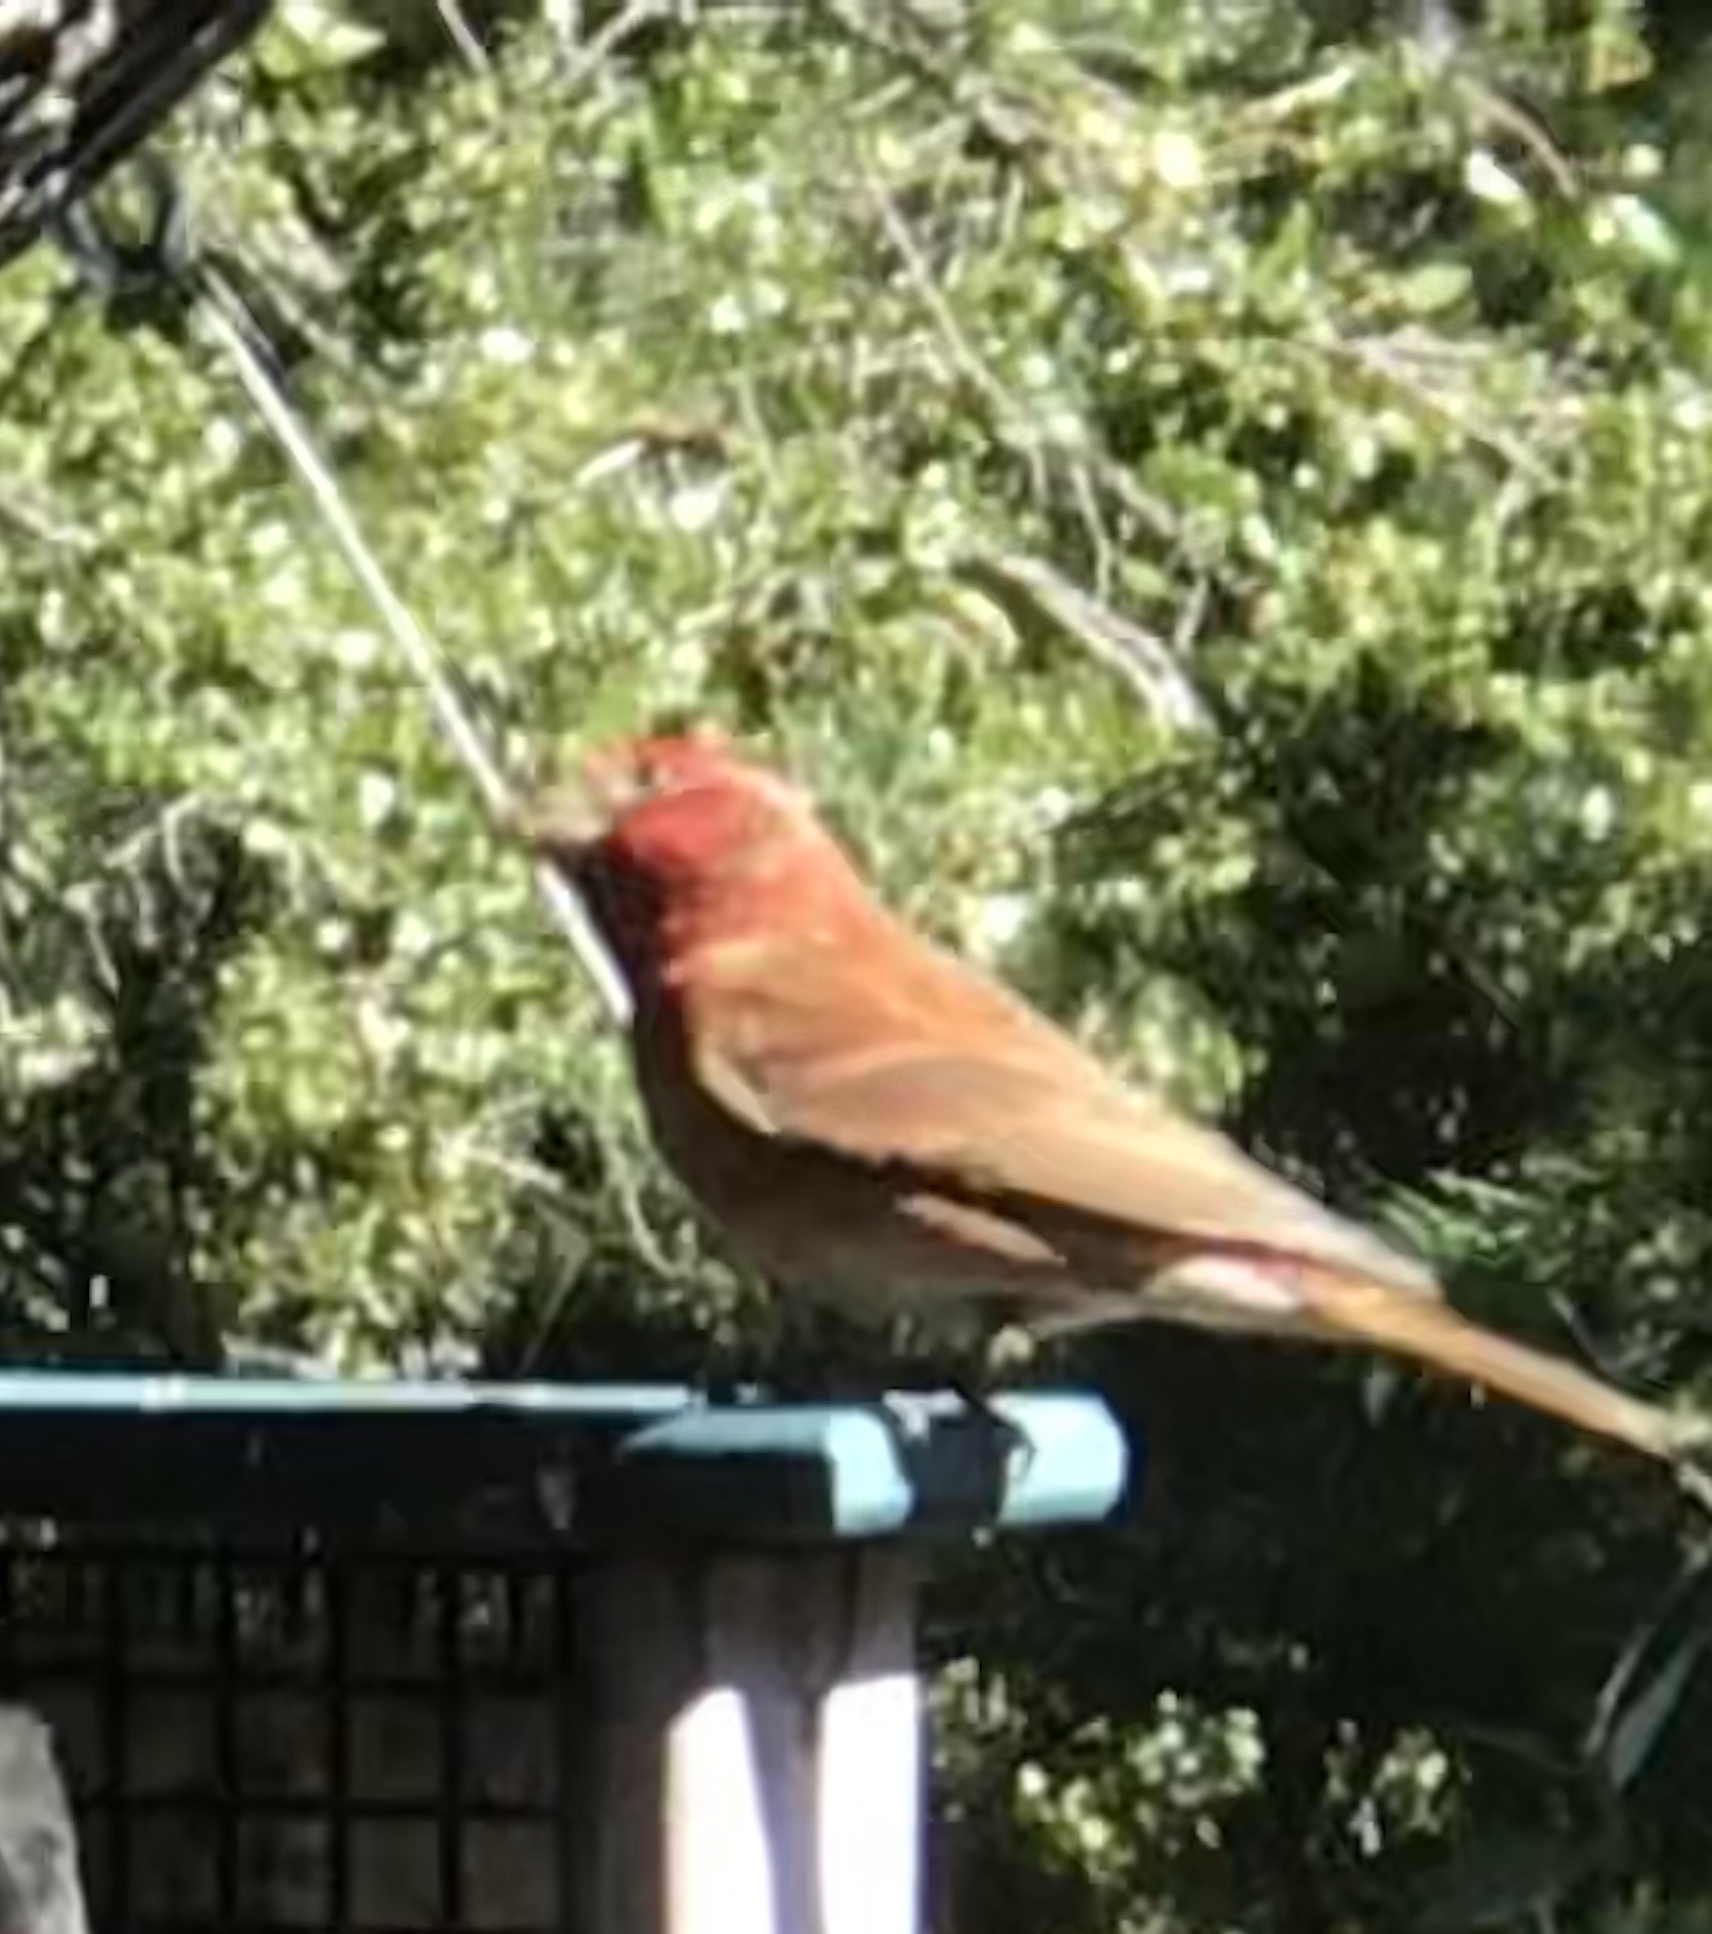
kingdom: Animalia
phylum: Chordata
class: Aves
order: Passeriformes
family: Fringillidae
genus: Haemorhous
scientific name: Haemorhous purpureus
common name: Purple finch
